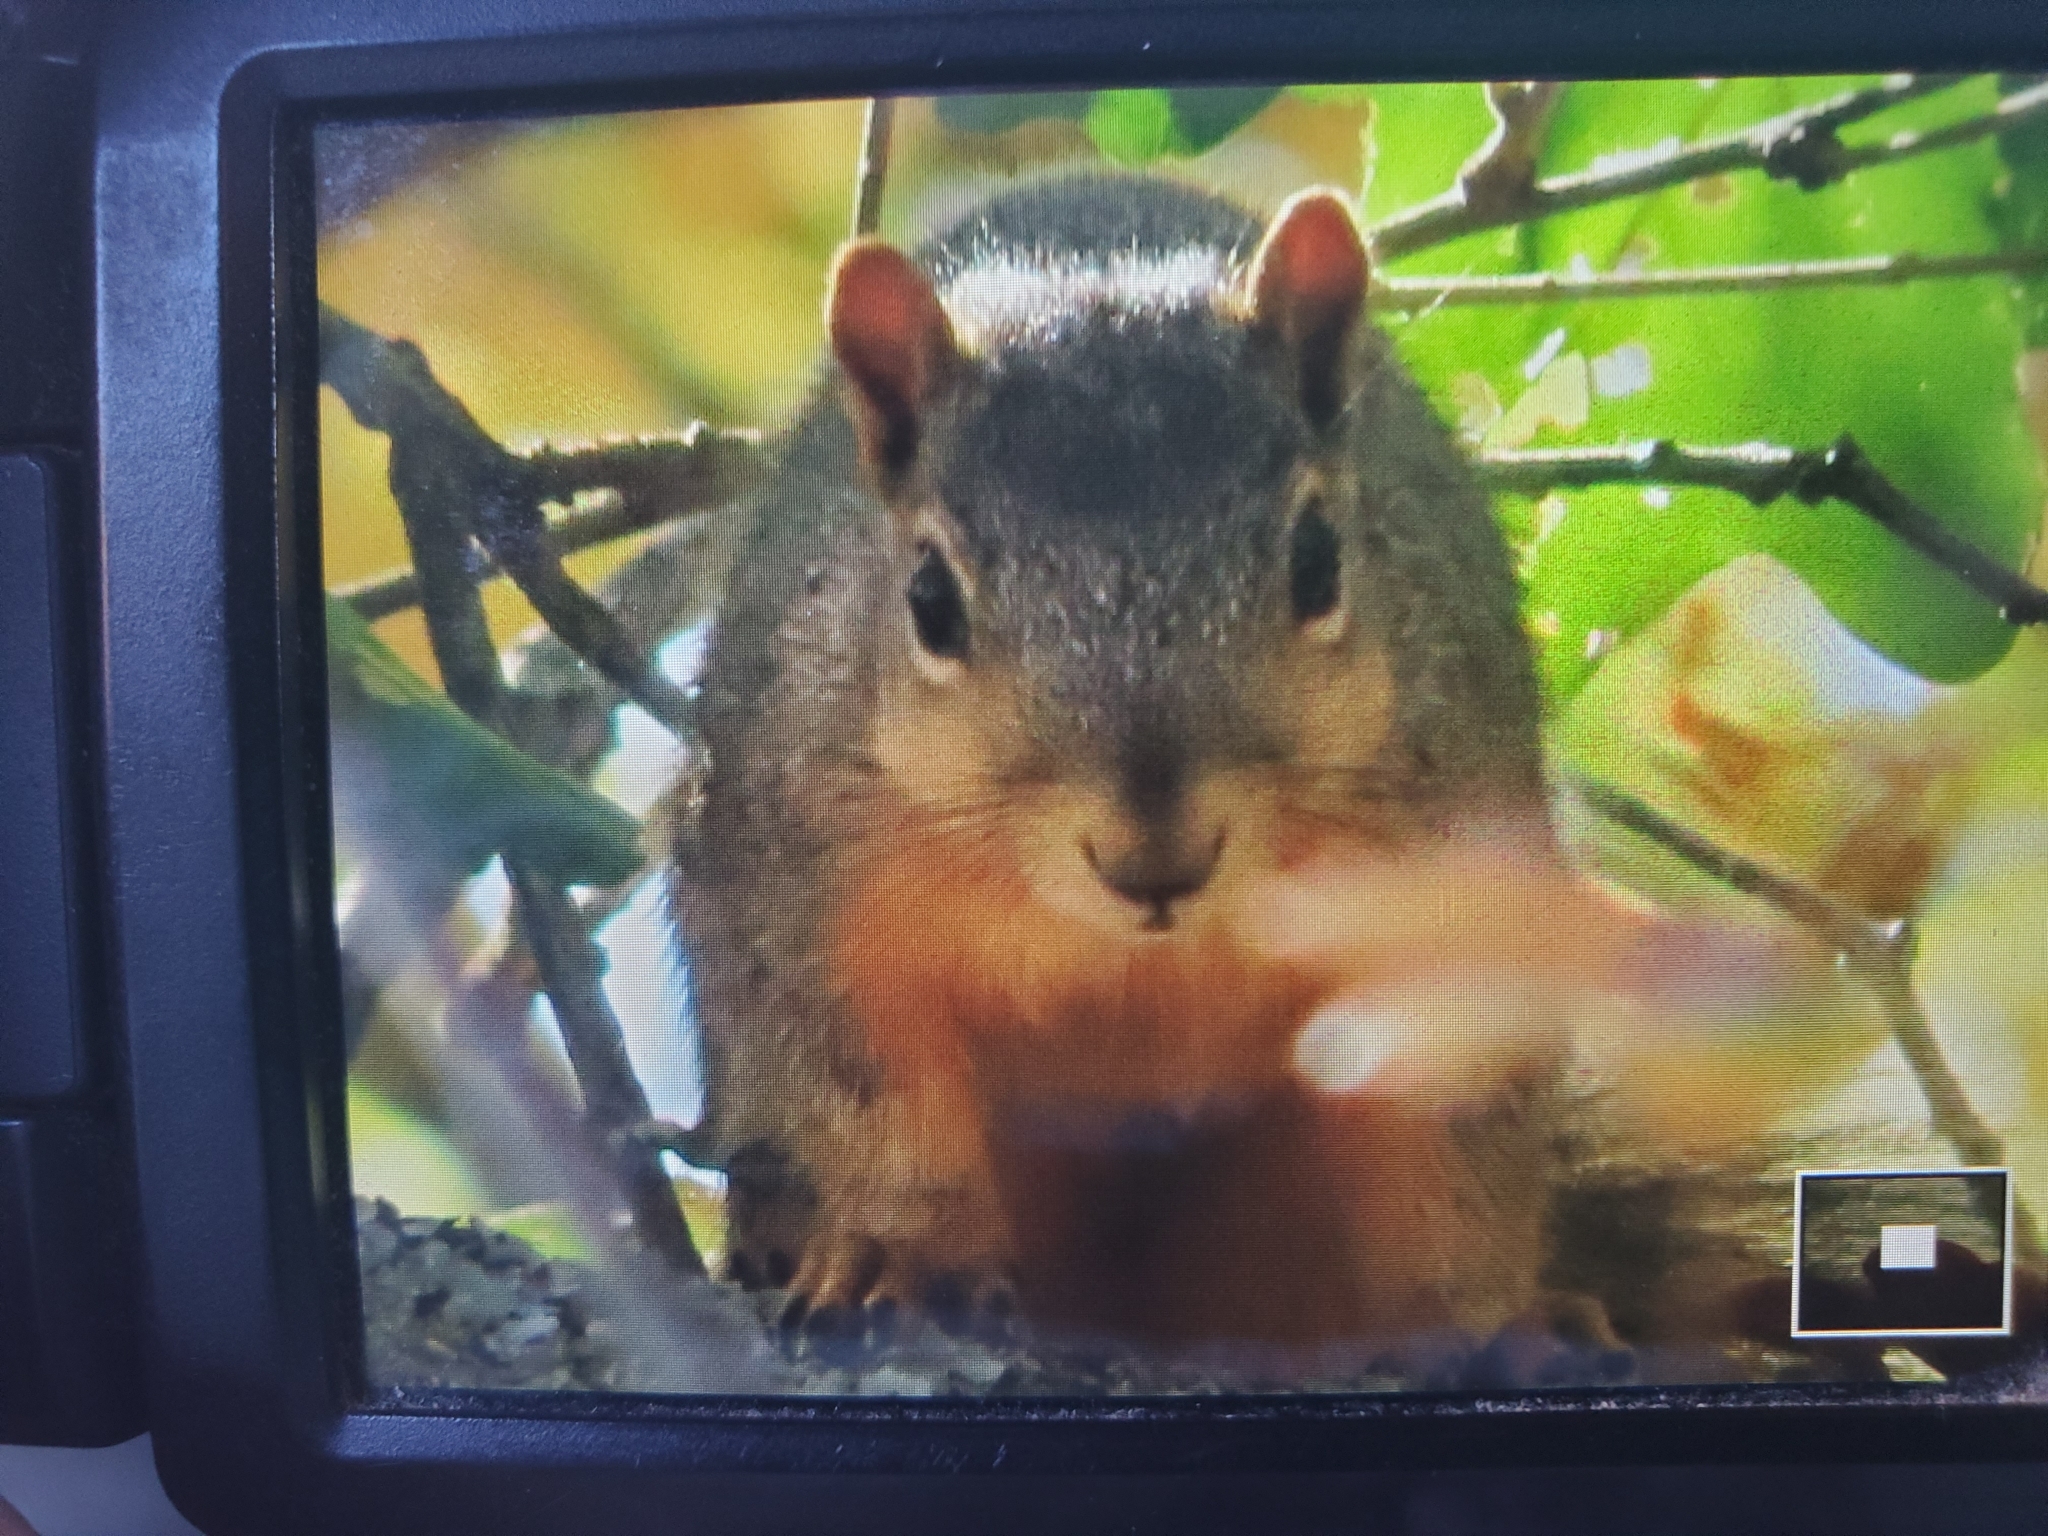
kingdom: Animalia
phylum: Chordata
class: Mammalia
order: Rodentia
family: Sciuridae
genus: Sciurus
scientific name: Sciurus niger
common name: Fox squirrel
